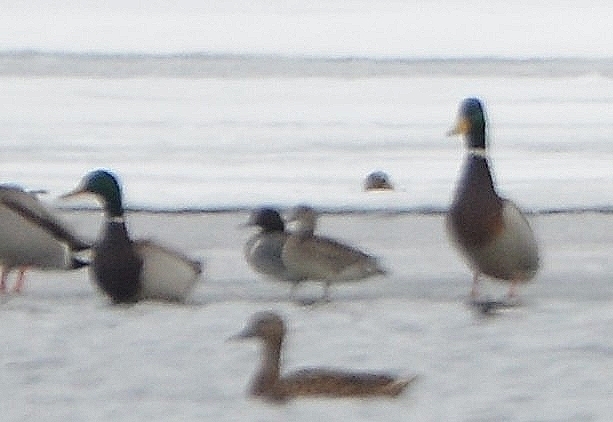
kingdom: Animalia
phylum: Chordata
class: Aves
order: Anseriformes
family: Anatidae
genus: Anas
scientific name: Anas carolinensis
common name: Green-winged teal
